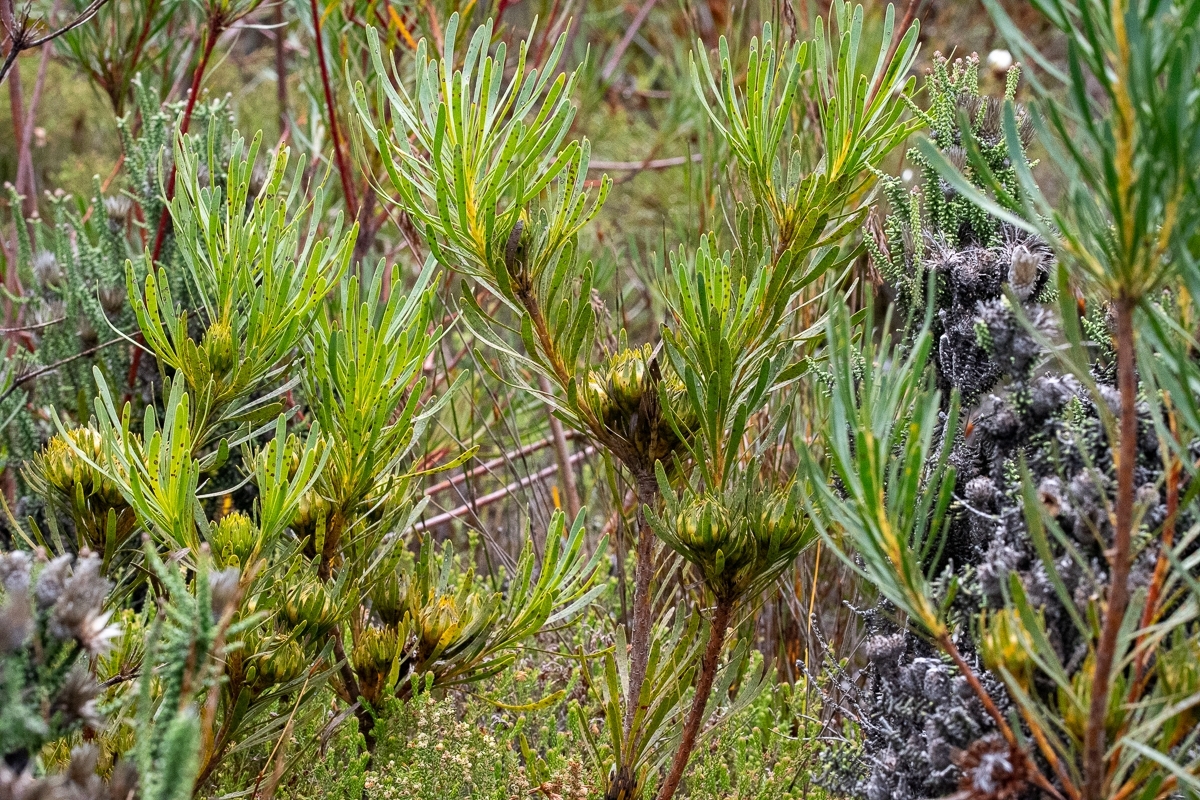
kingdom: Plantae
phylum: Tracheophyta
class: Magnoliopsida
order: Proteales
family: Proteaceae
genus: Aulax
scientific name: Aulax
